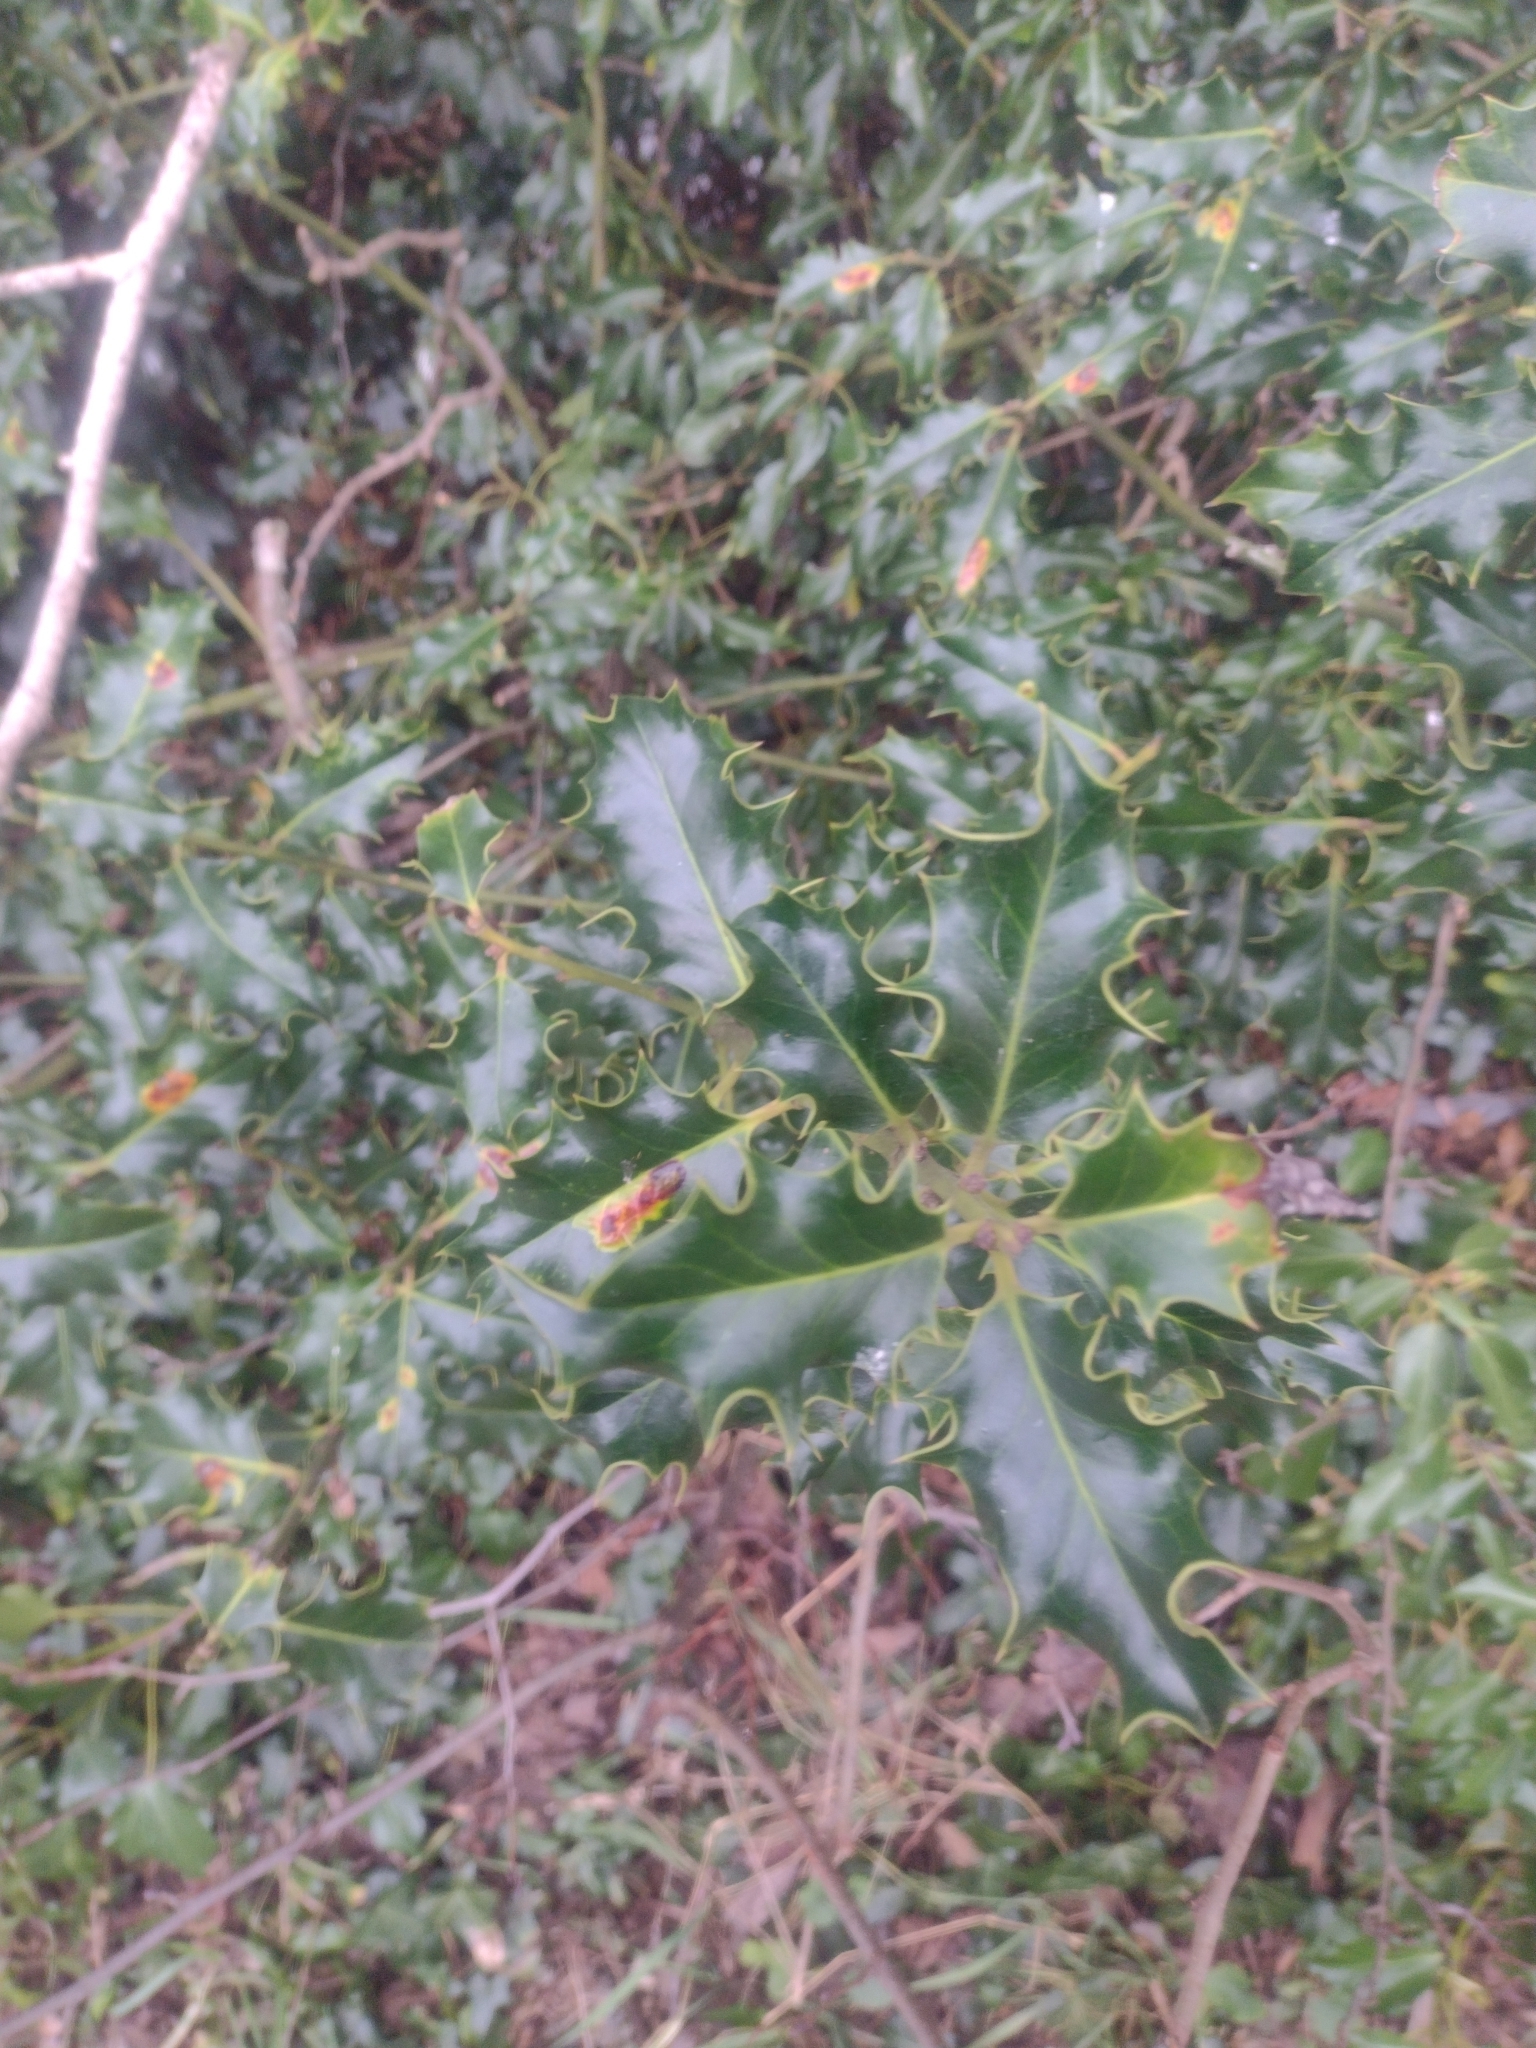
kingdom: Plantae
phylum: Tracheophyta
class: Magnoliopsida
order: Aquifoliales
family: Aquifoliaceae
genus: Ilex
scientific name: Ilex aquifolium
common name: English holly
